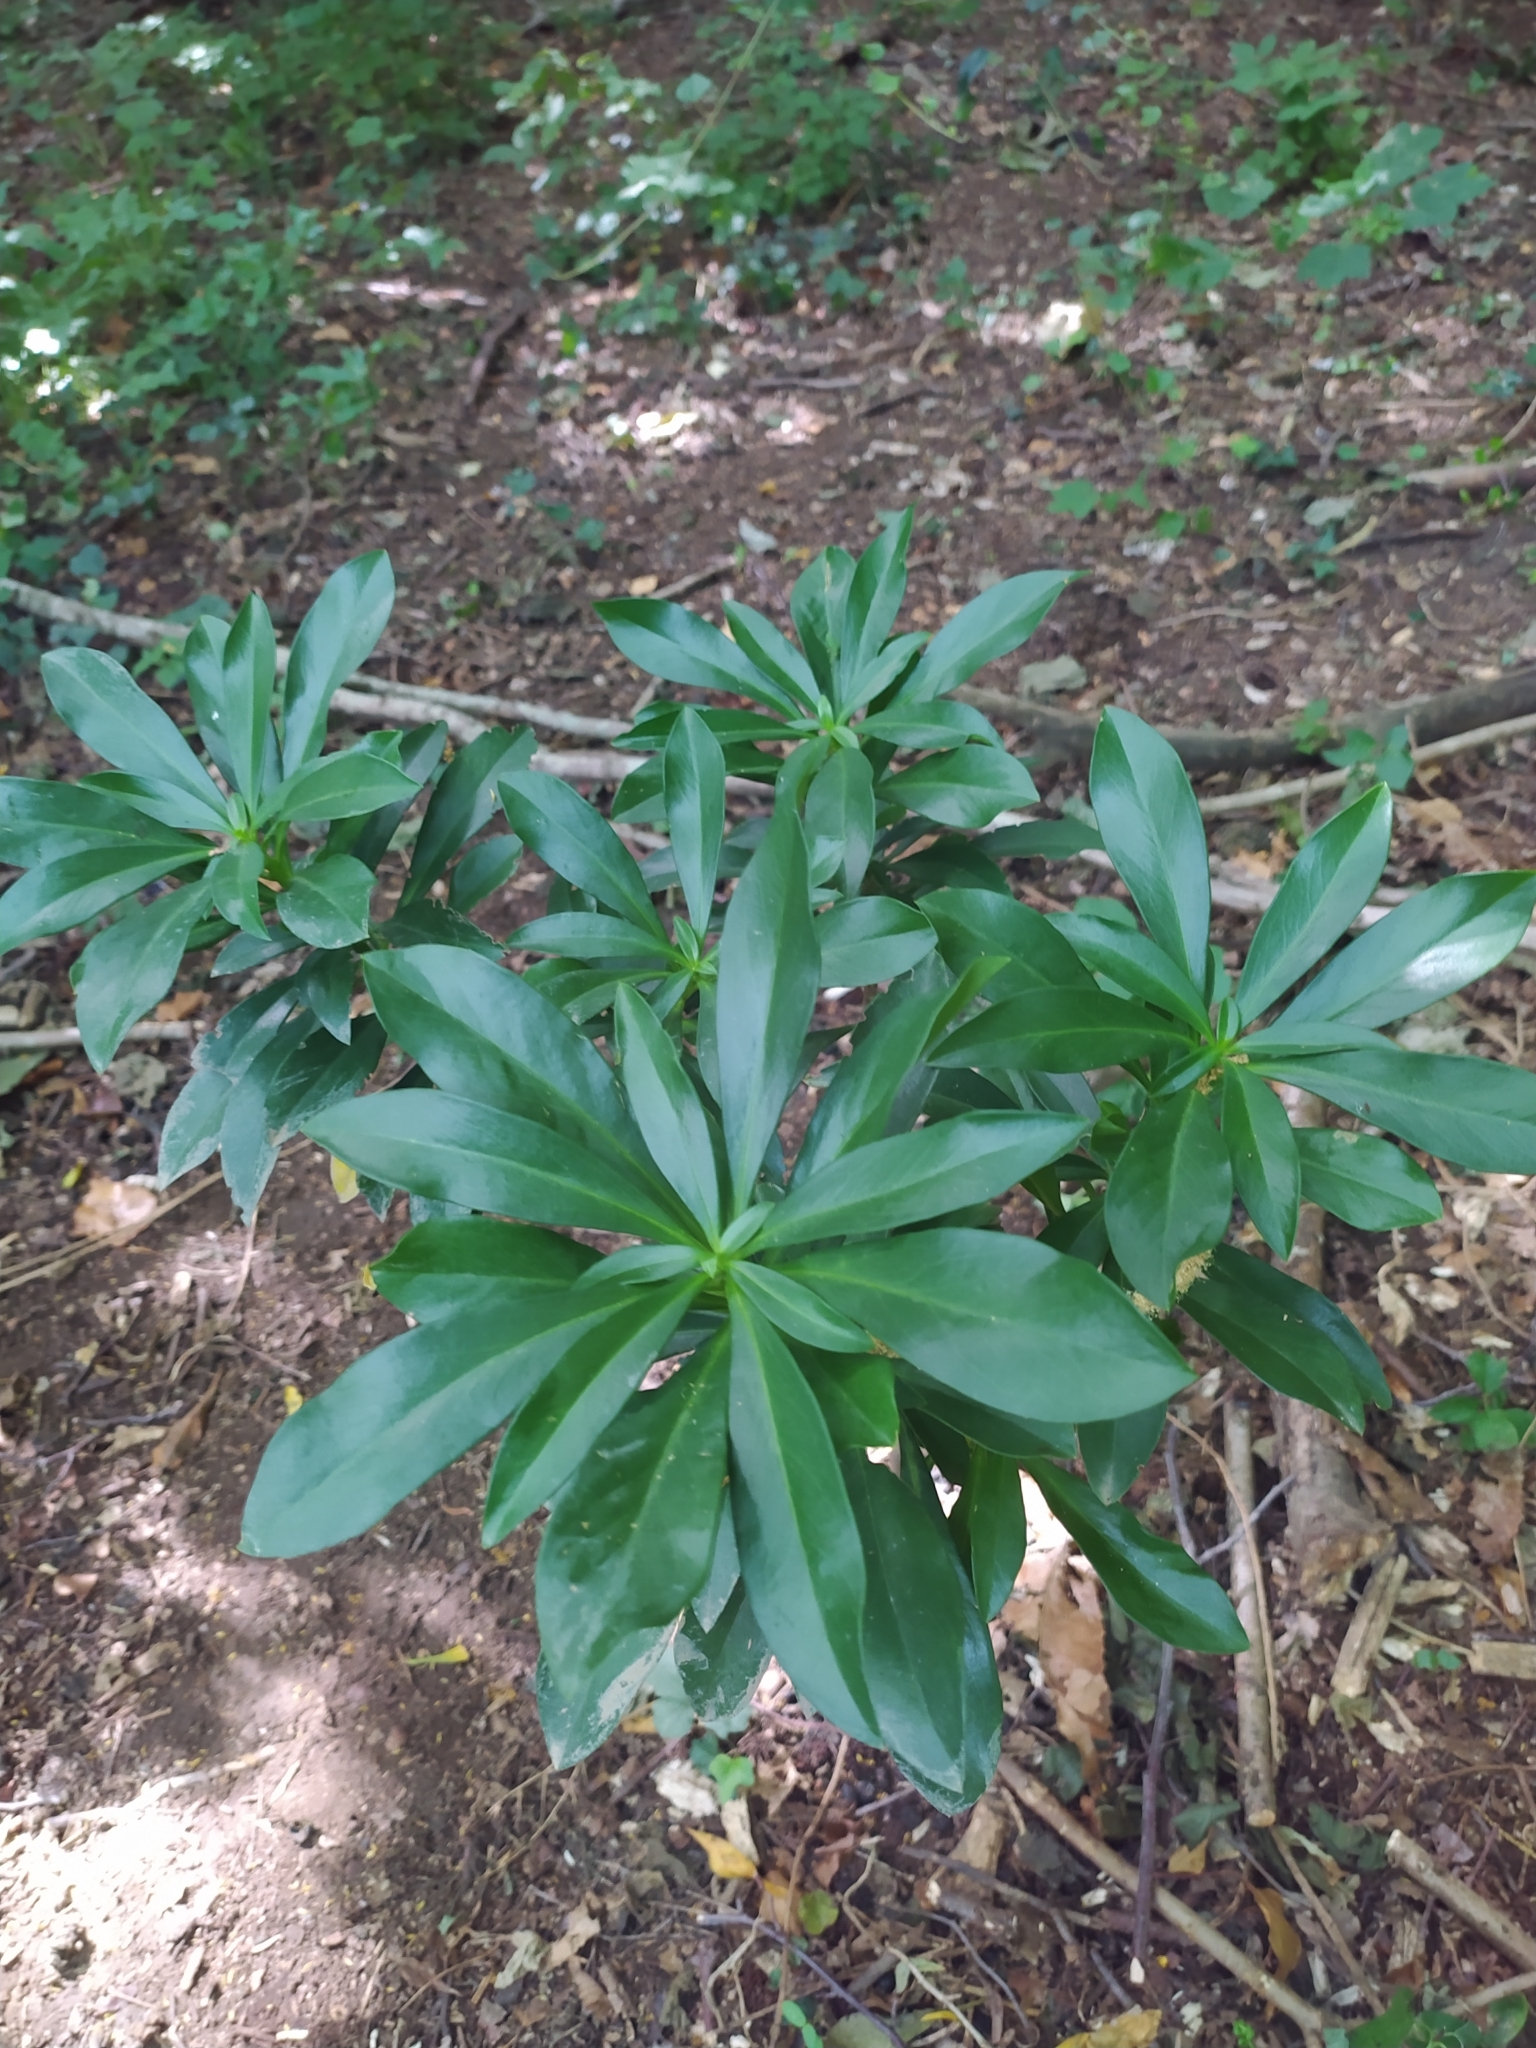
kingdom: Plantae
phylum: Tracheophyta
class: Magnoliopsida
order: Malvales
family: Thymelaeaceae
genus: Daphne
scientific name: Daphne laureola
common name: Spurge-laurel
